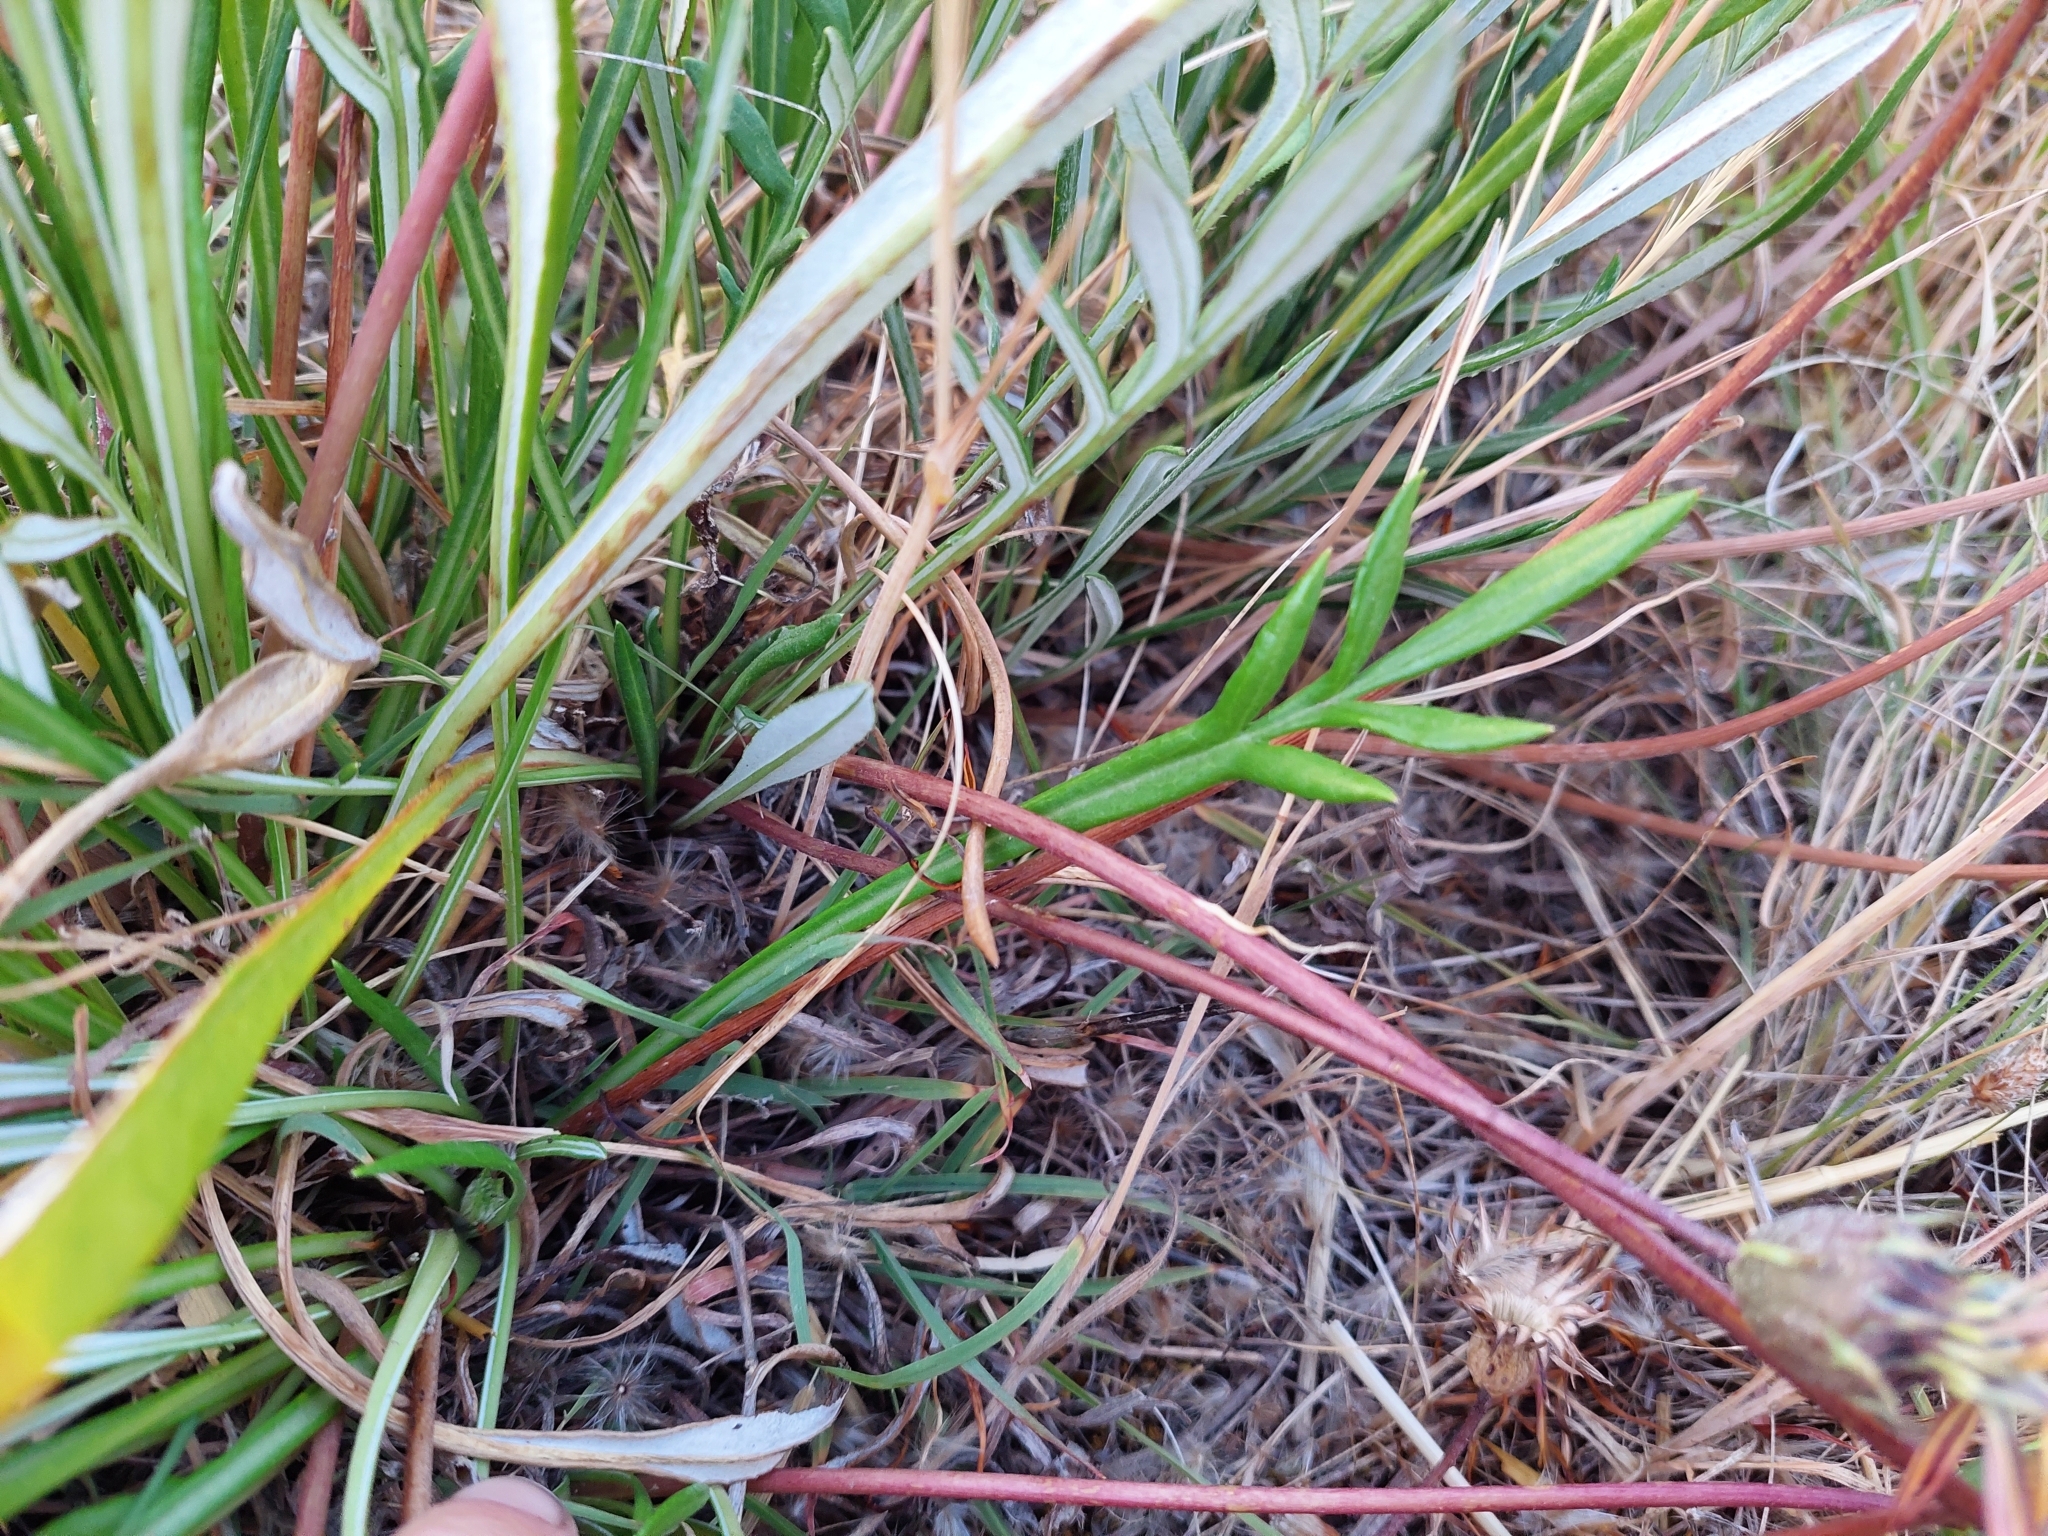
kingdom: Plantae
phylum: Tracheophyta
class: Magnoliopsida
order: Asterales
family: Asteraceae
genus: Gazania
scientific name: Gazania splendens
